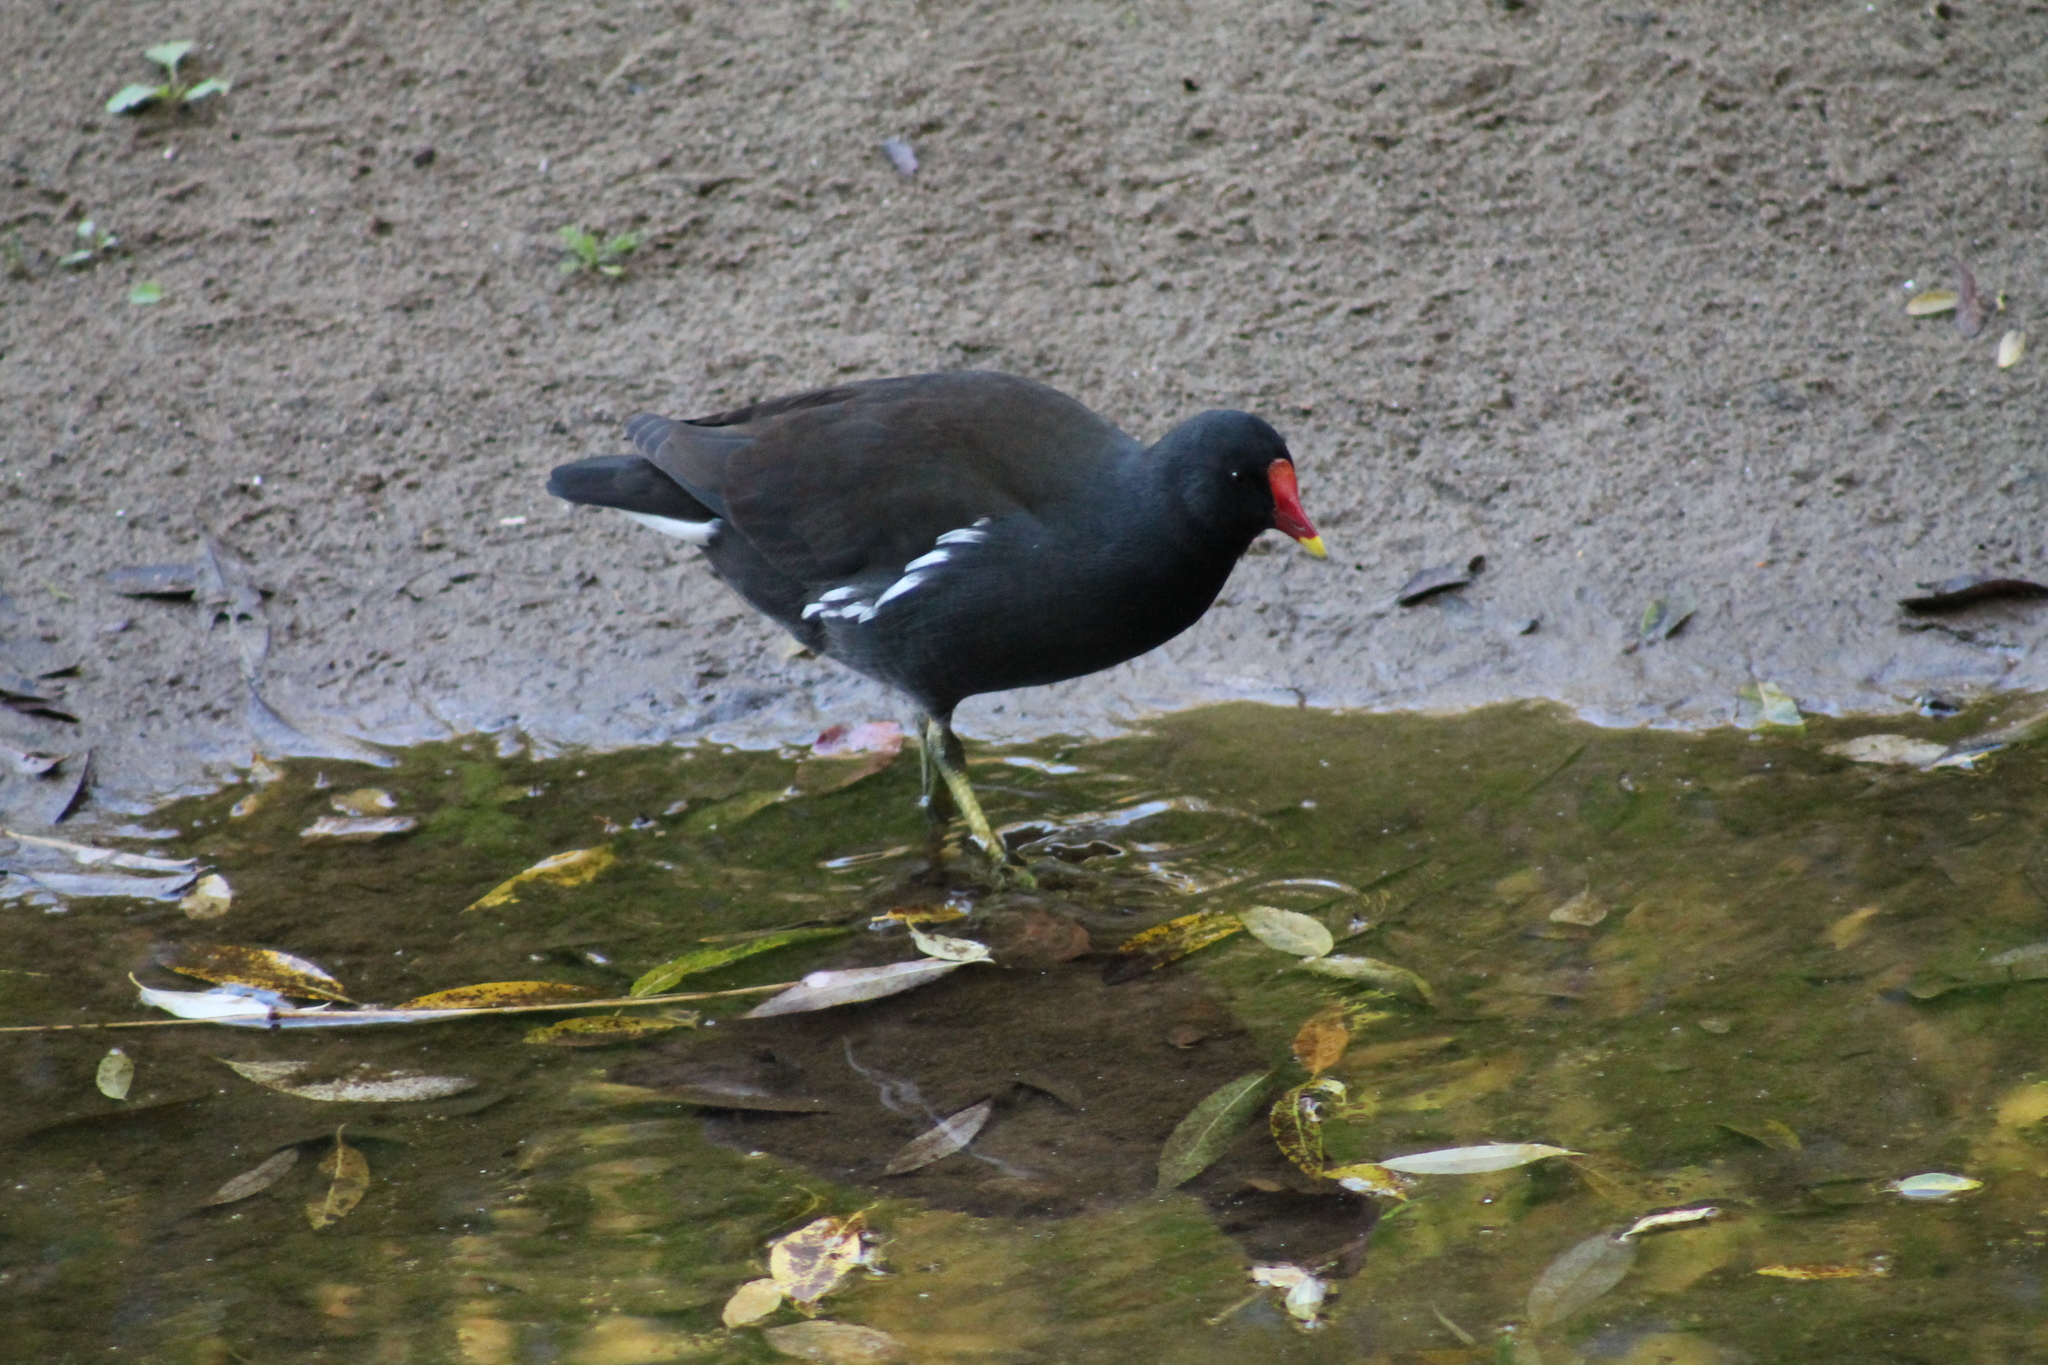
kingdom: Animalia
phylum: Chordata
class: Aves
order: Gruiformes
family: Rallidae
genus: Gallinula
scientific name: Gallinula chloropus
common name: Common moorhen
